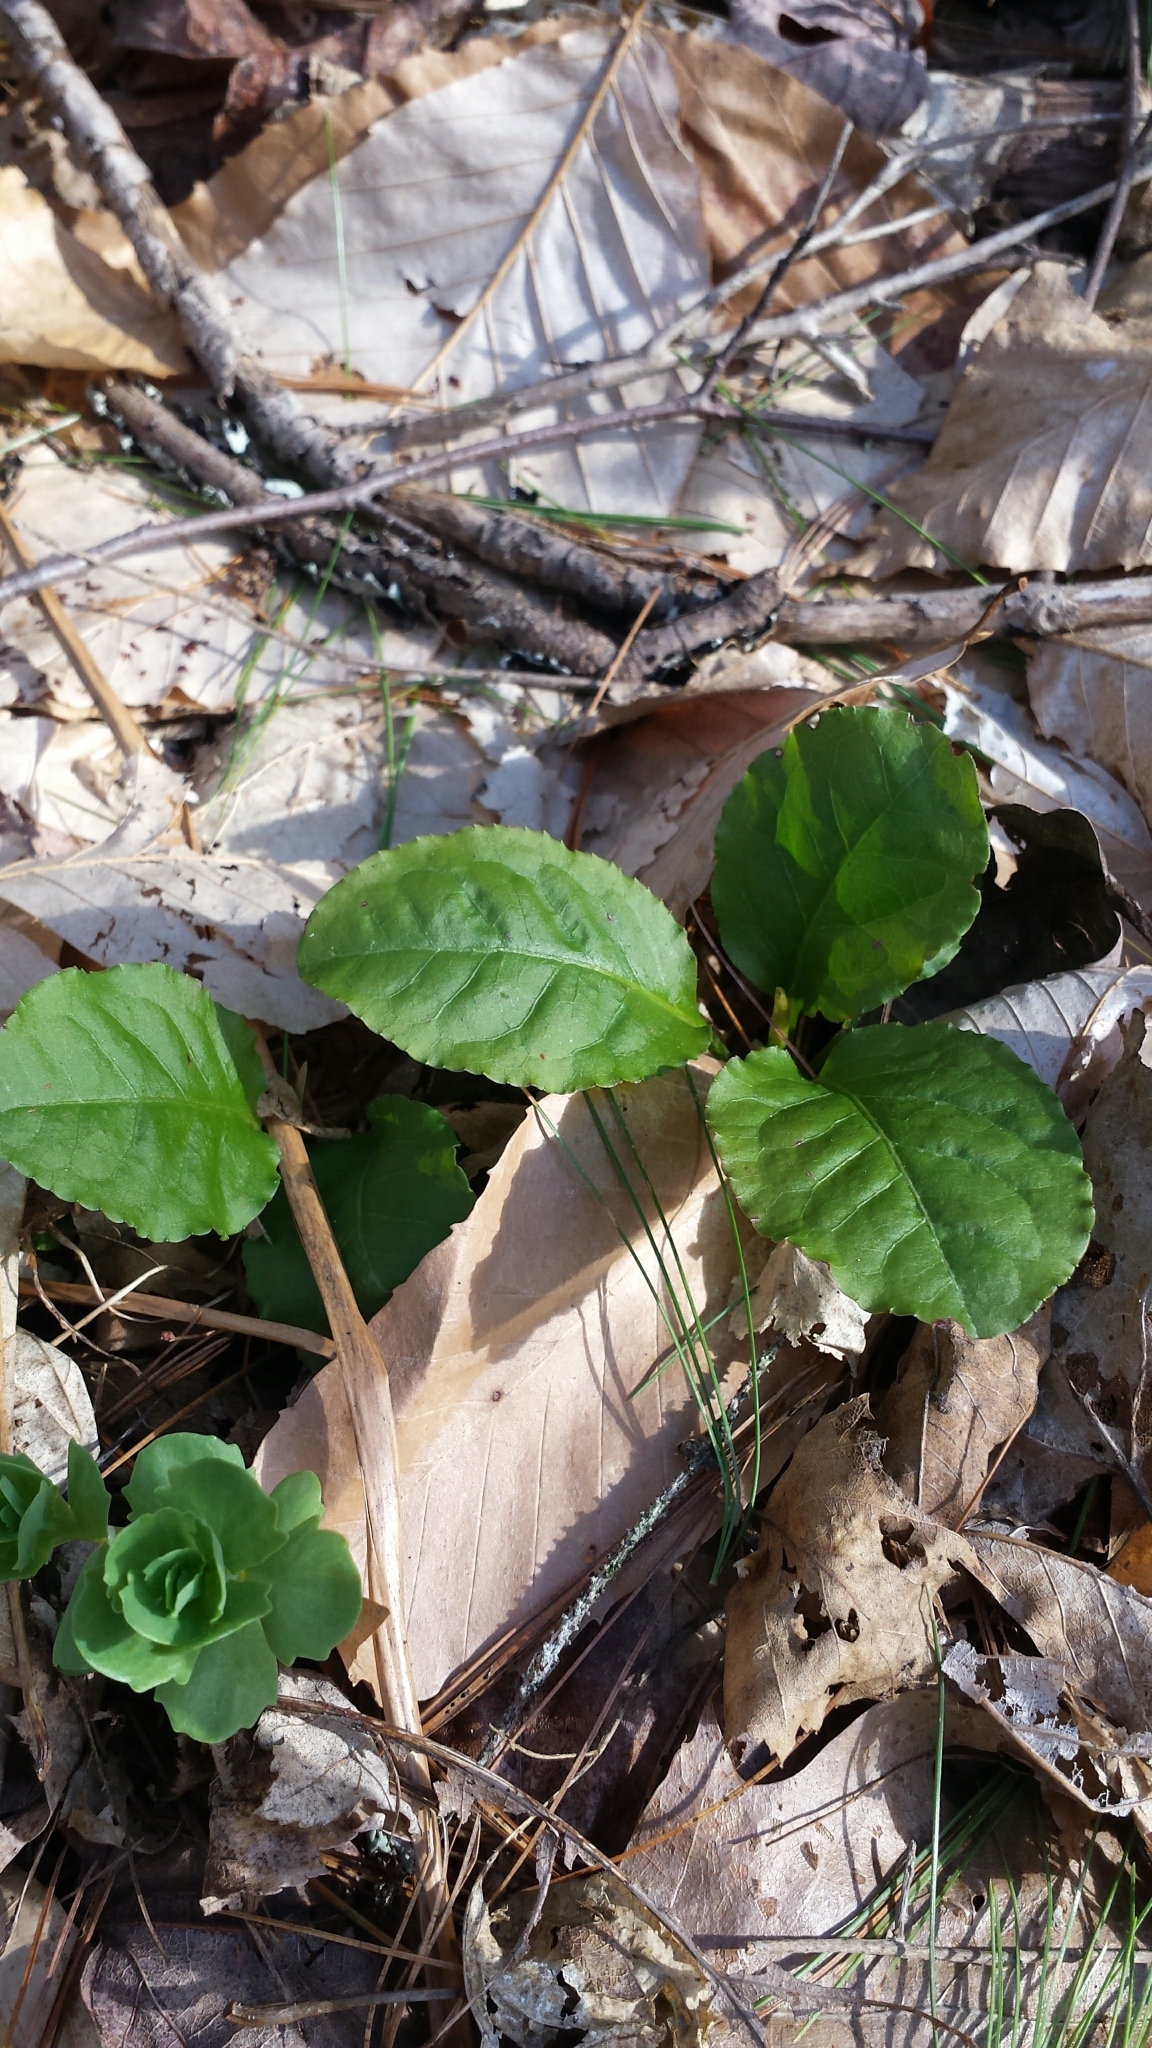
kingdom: Plantae
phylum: Tracheophyta
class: Magnoliopsida
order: Ericales
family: Ericaceae
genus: Pyrola
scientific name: Pyrola elliptica
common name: Shinleaf
